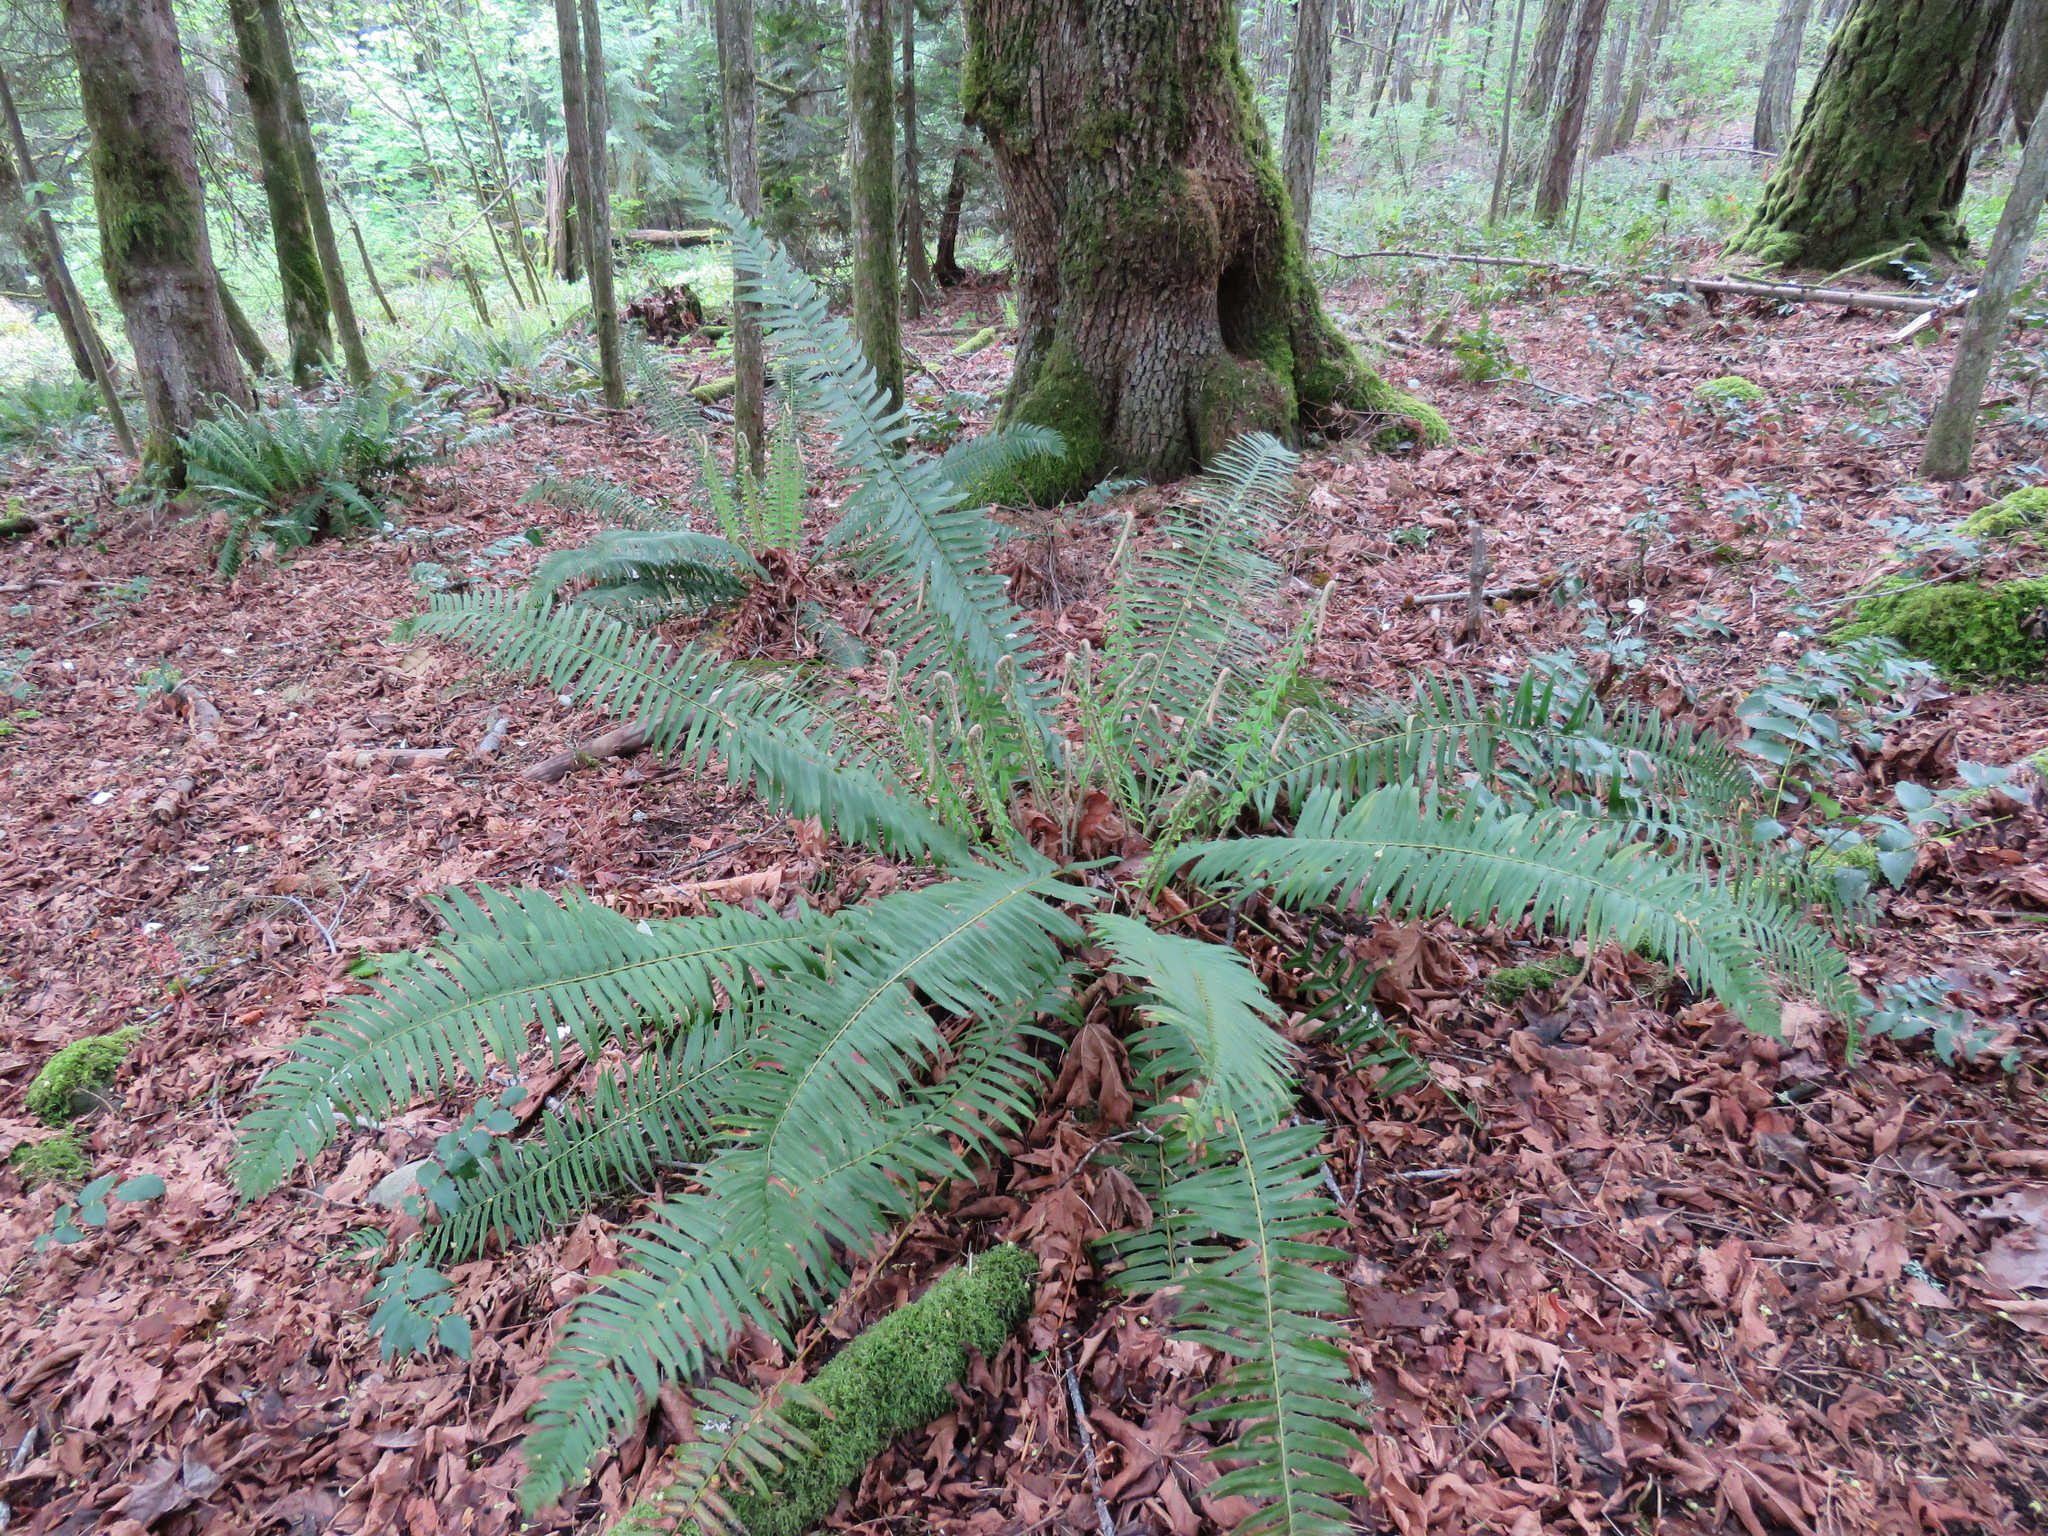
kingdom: Plantae
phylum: Tracheophyta
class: Polypodiopsida
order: Polypodiales
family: Dryopteridaceae
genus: Polystichum
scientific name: Polystichum munitum
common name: Western sword-fern
